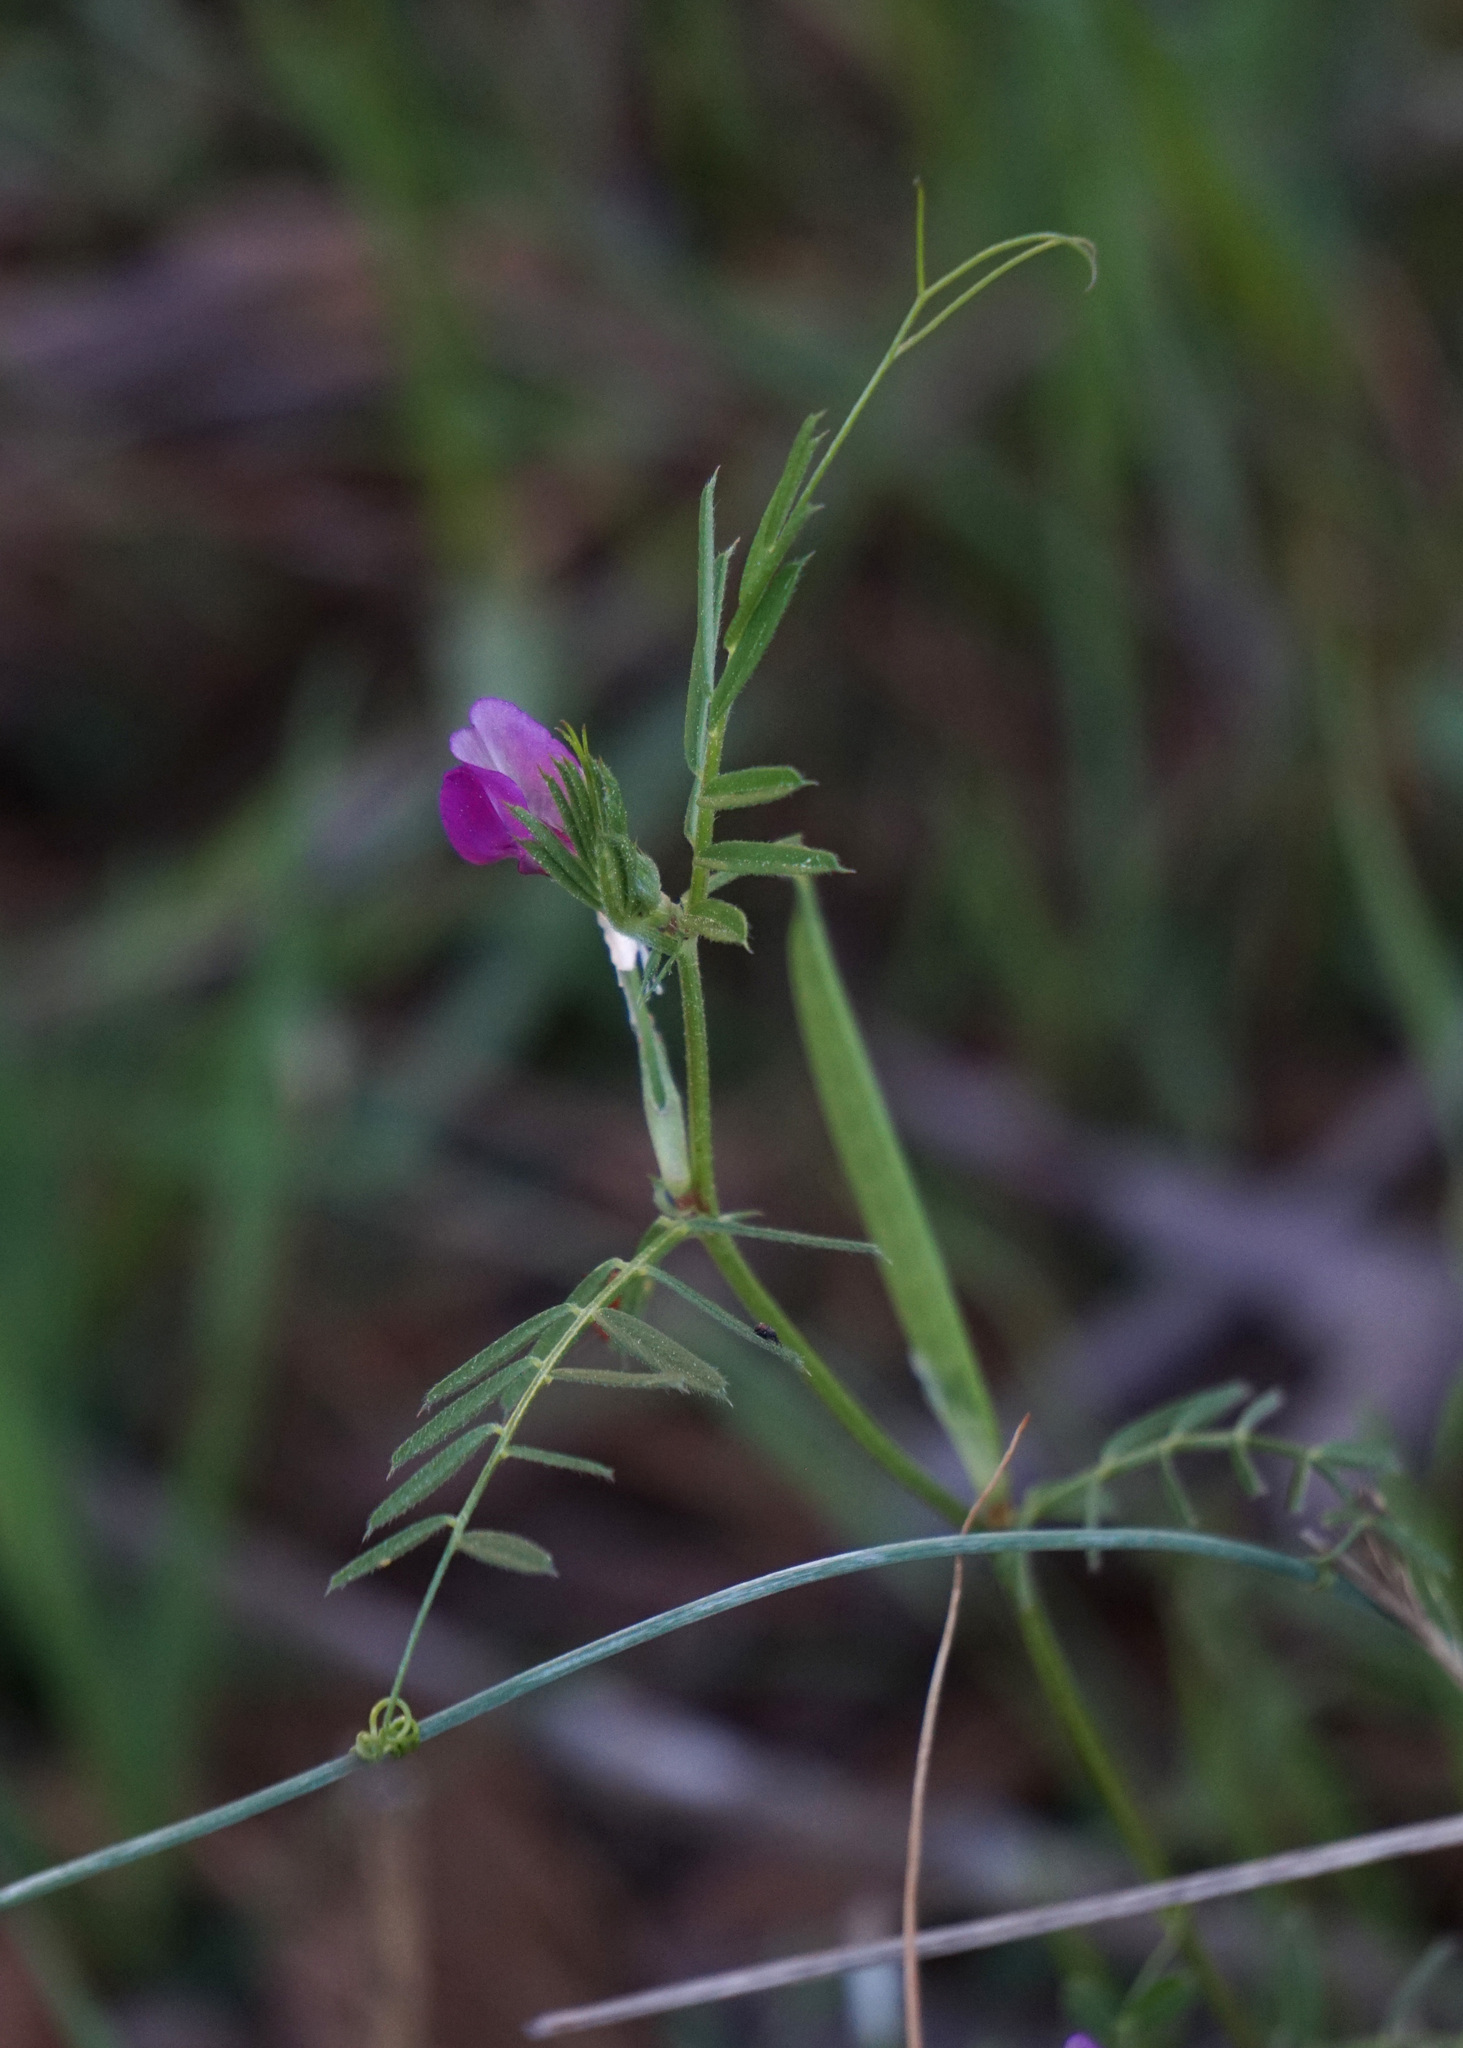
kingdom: Plantae
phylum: Tracheophyta
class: Magnoliopsida
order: Fabales
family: Fabaceae
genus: Vicia
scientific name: Vicia sativa
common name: Garden vetch
